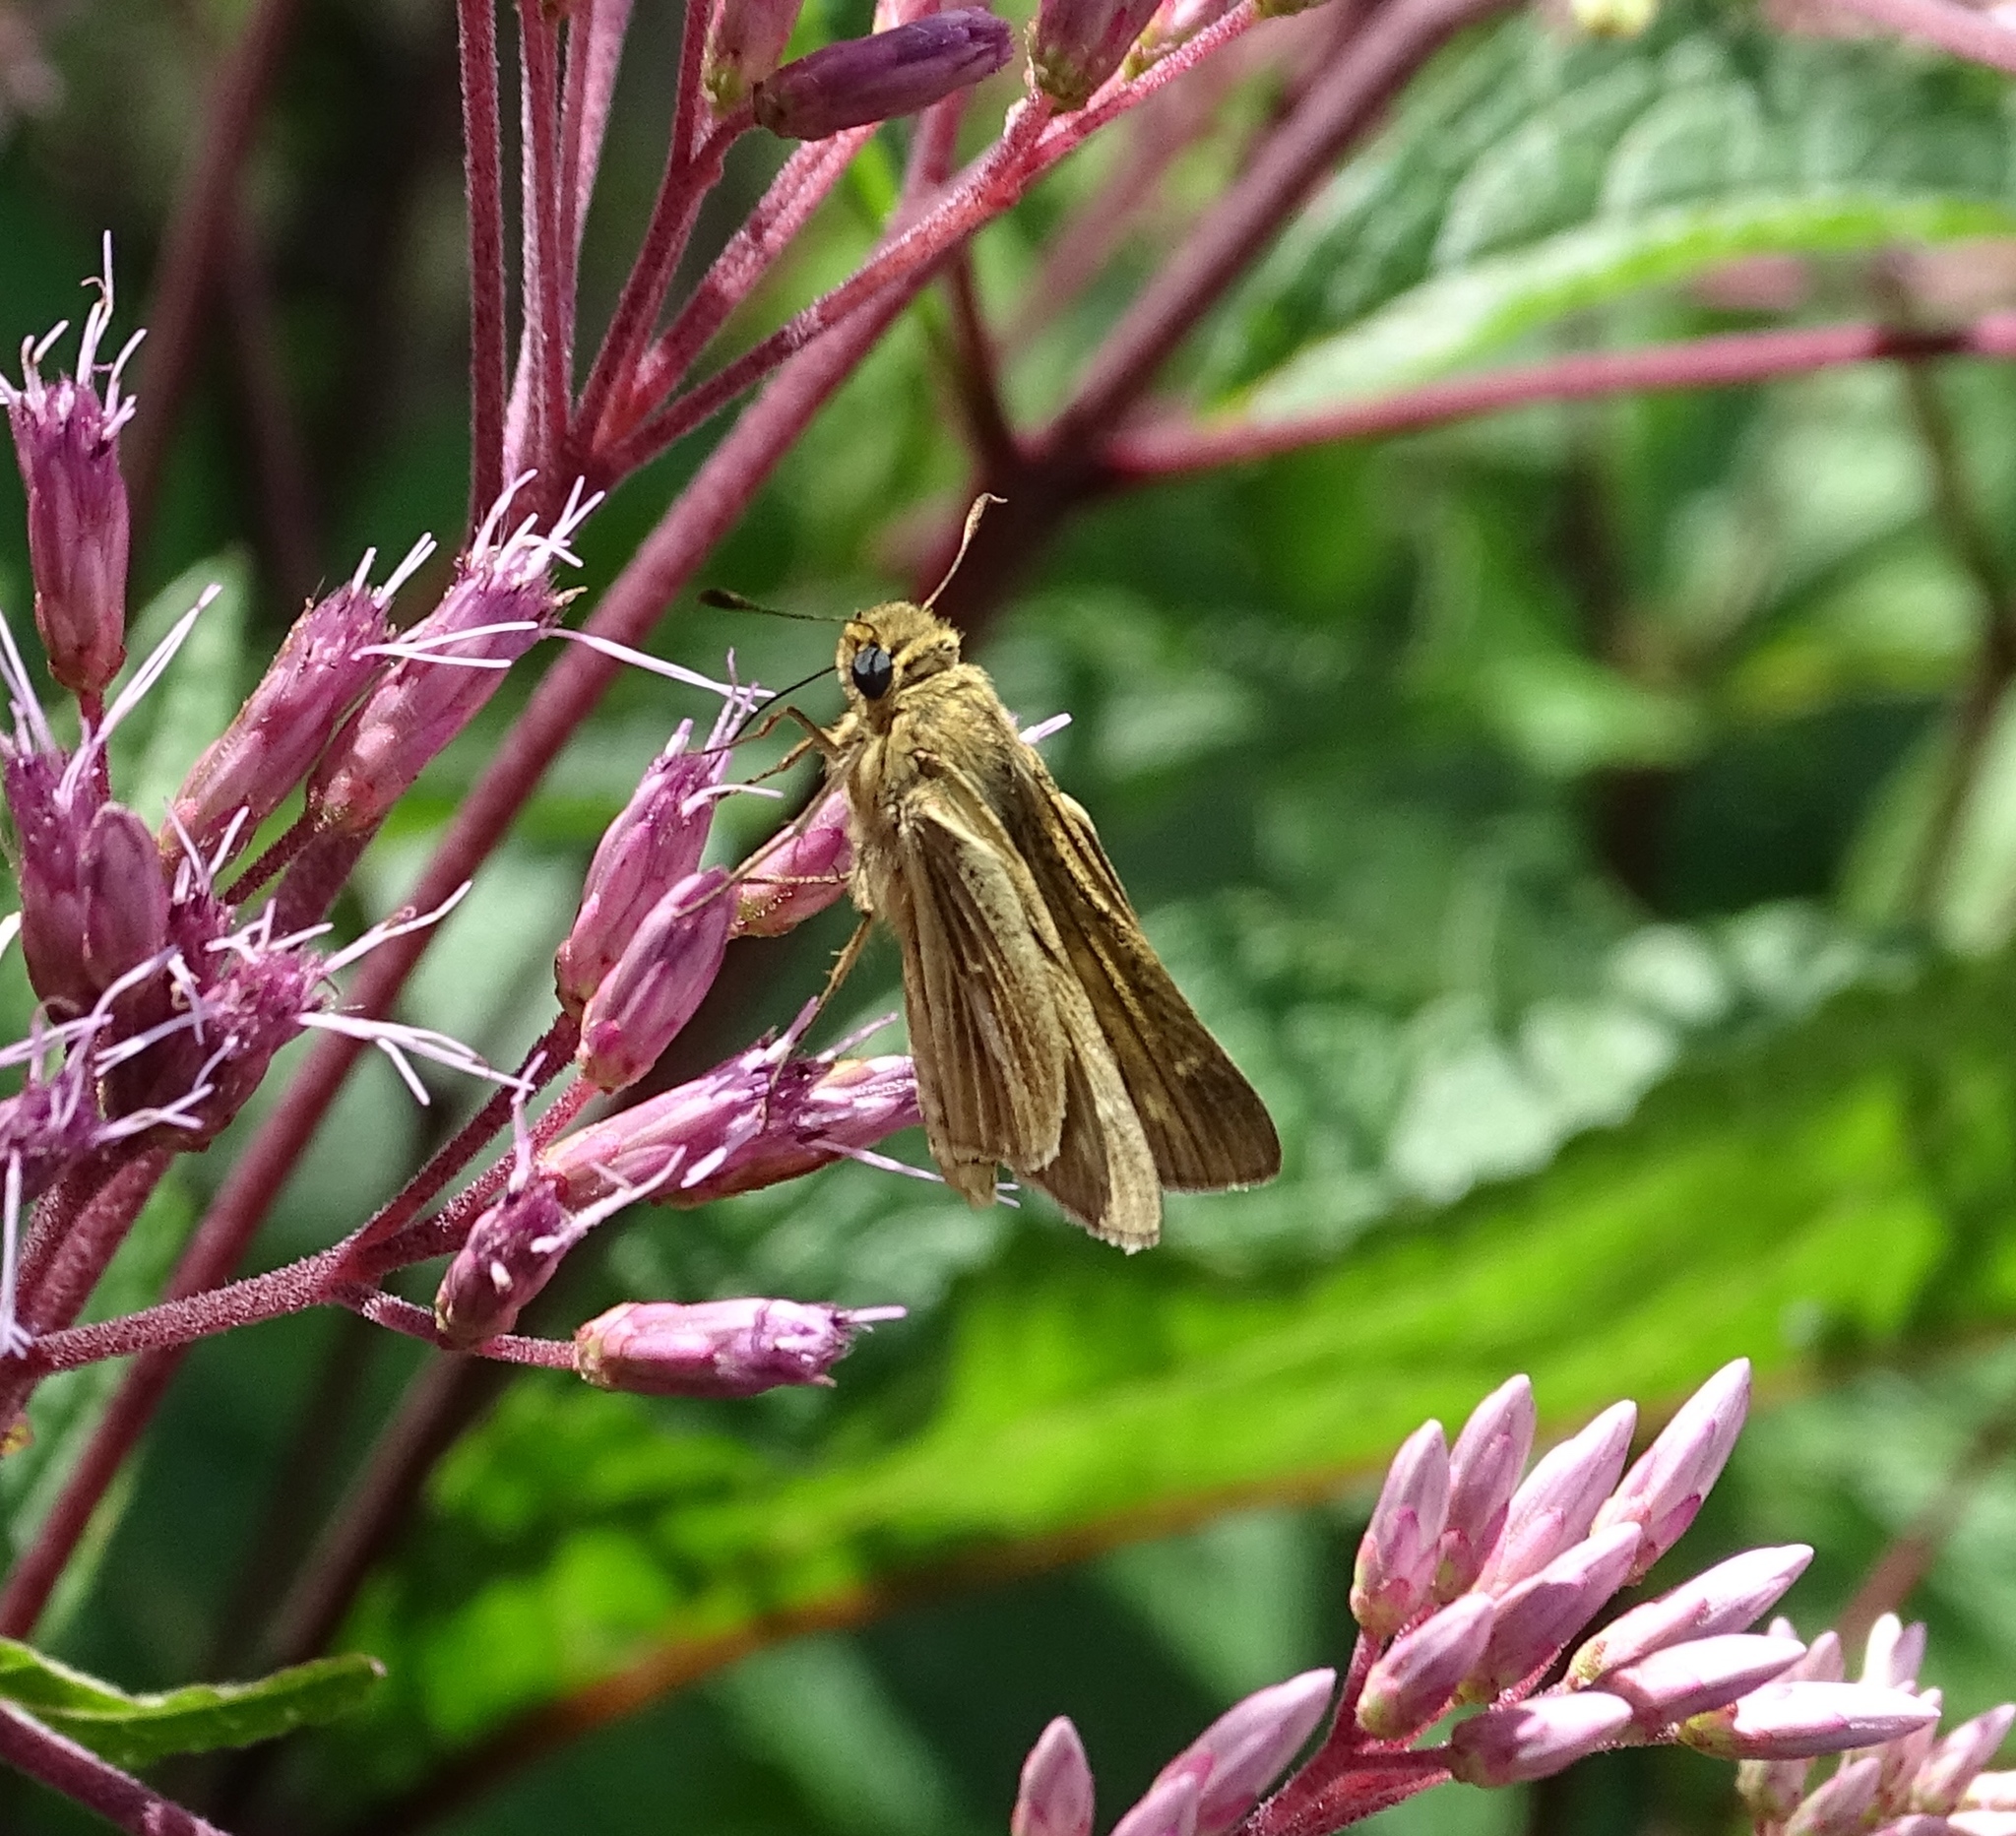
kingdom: Animalia
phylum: Arthropoda
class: Insecta
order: Lepidoptera
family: Hesperiidae
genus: Panoquina
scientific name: Panoquina panoquin
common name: Salt marsh skipper
